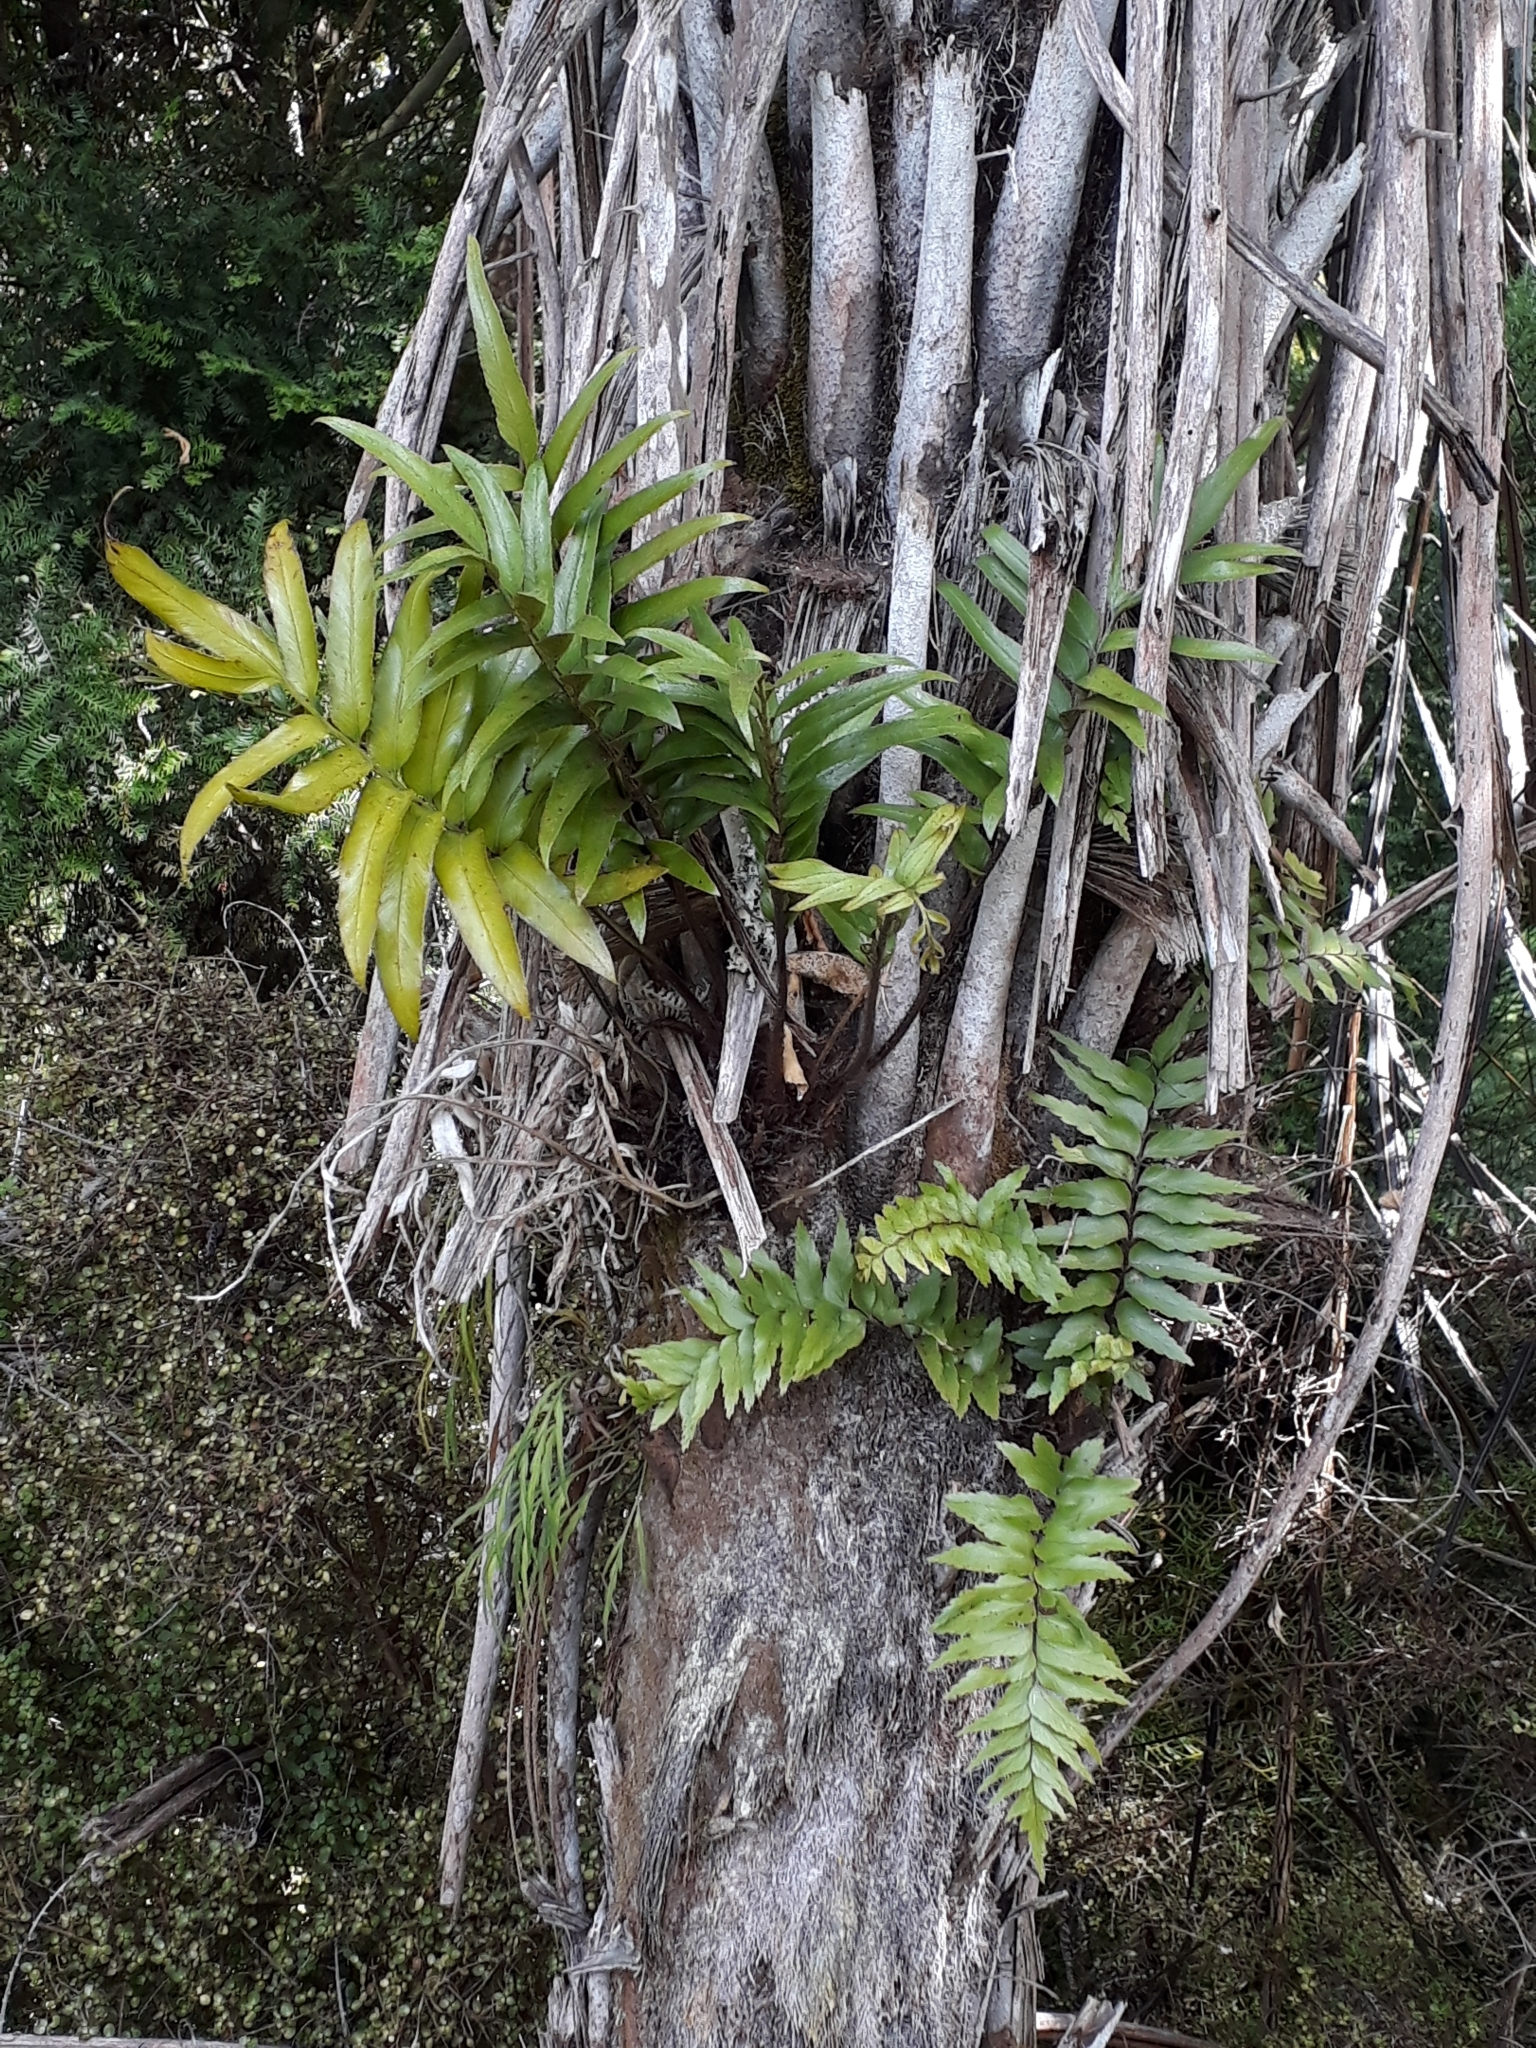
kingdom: Plantae
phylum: Tracheophyta
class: Polypodiopsida
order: Polypodiales
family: Aspleniaceae
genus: Asplenium
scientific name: Asplenium oblongifolium
